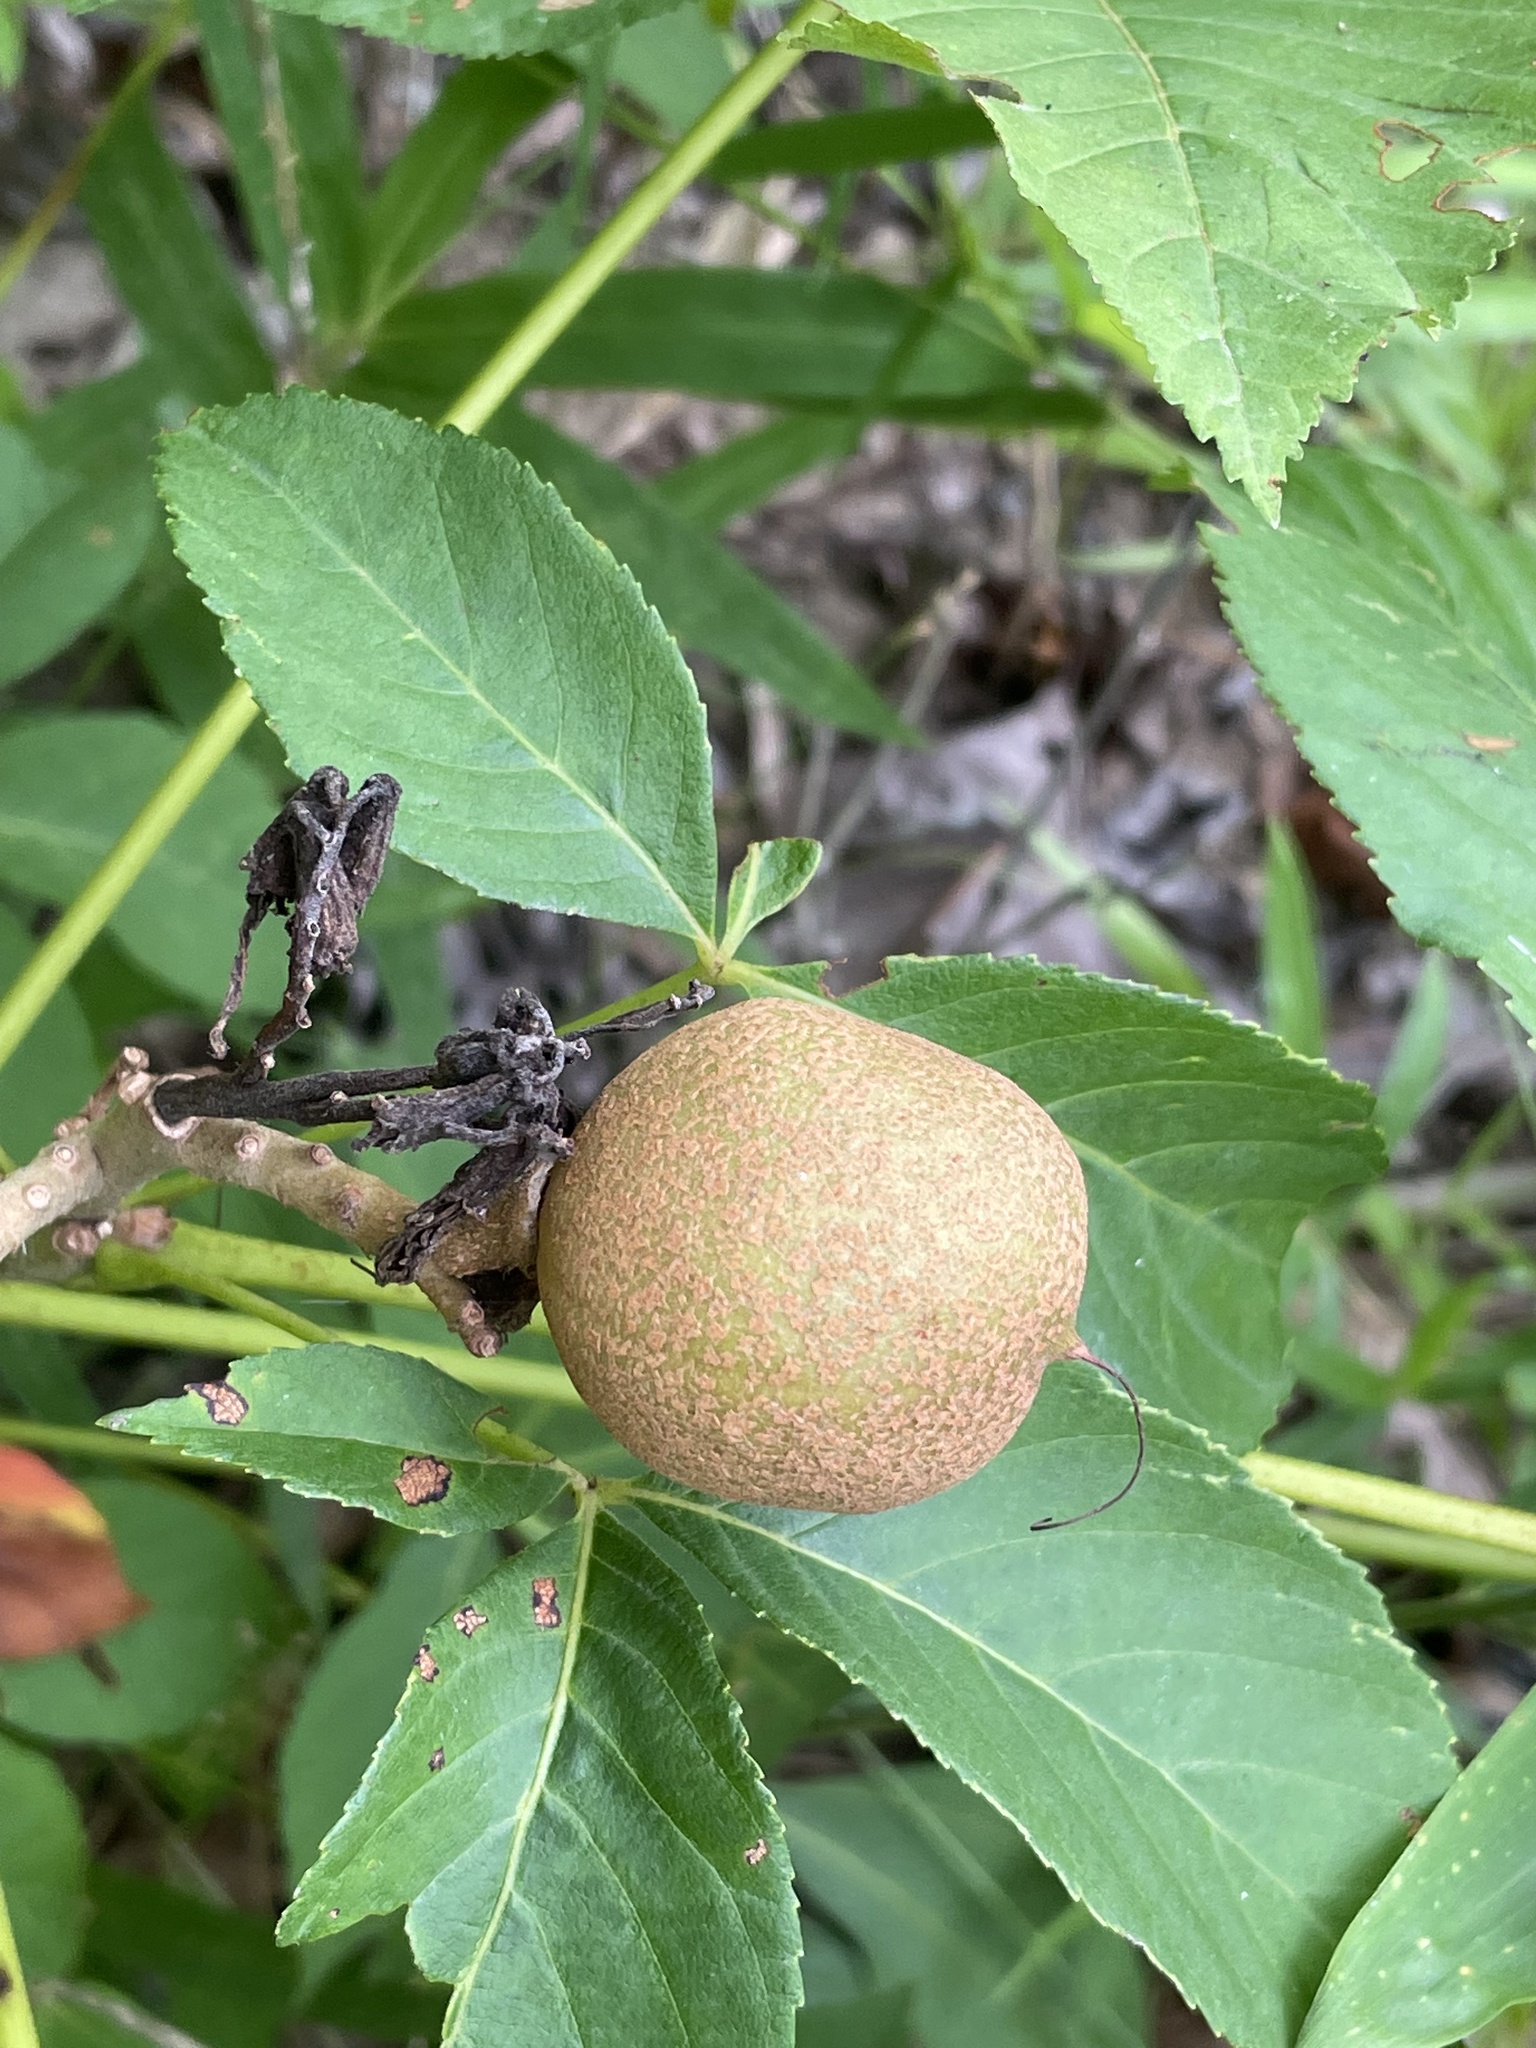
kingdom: Plantae
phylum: Tracheophyta
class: Magnoliopsida
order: Sapindales
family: Sapindaceae
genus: Aesculus
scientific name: Aesculus sylvatica
